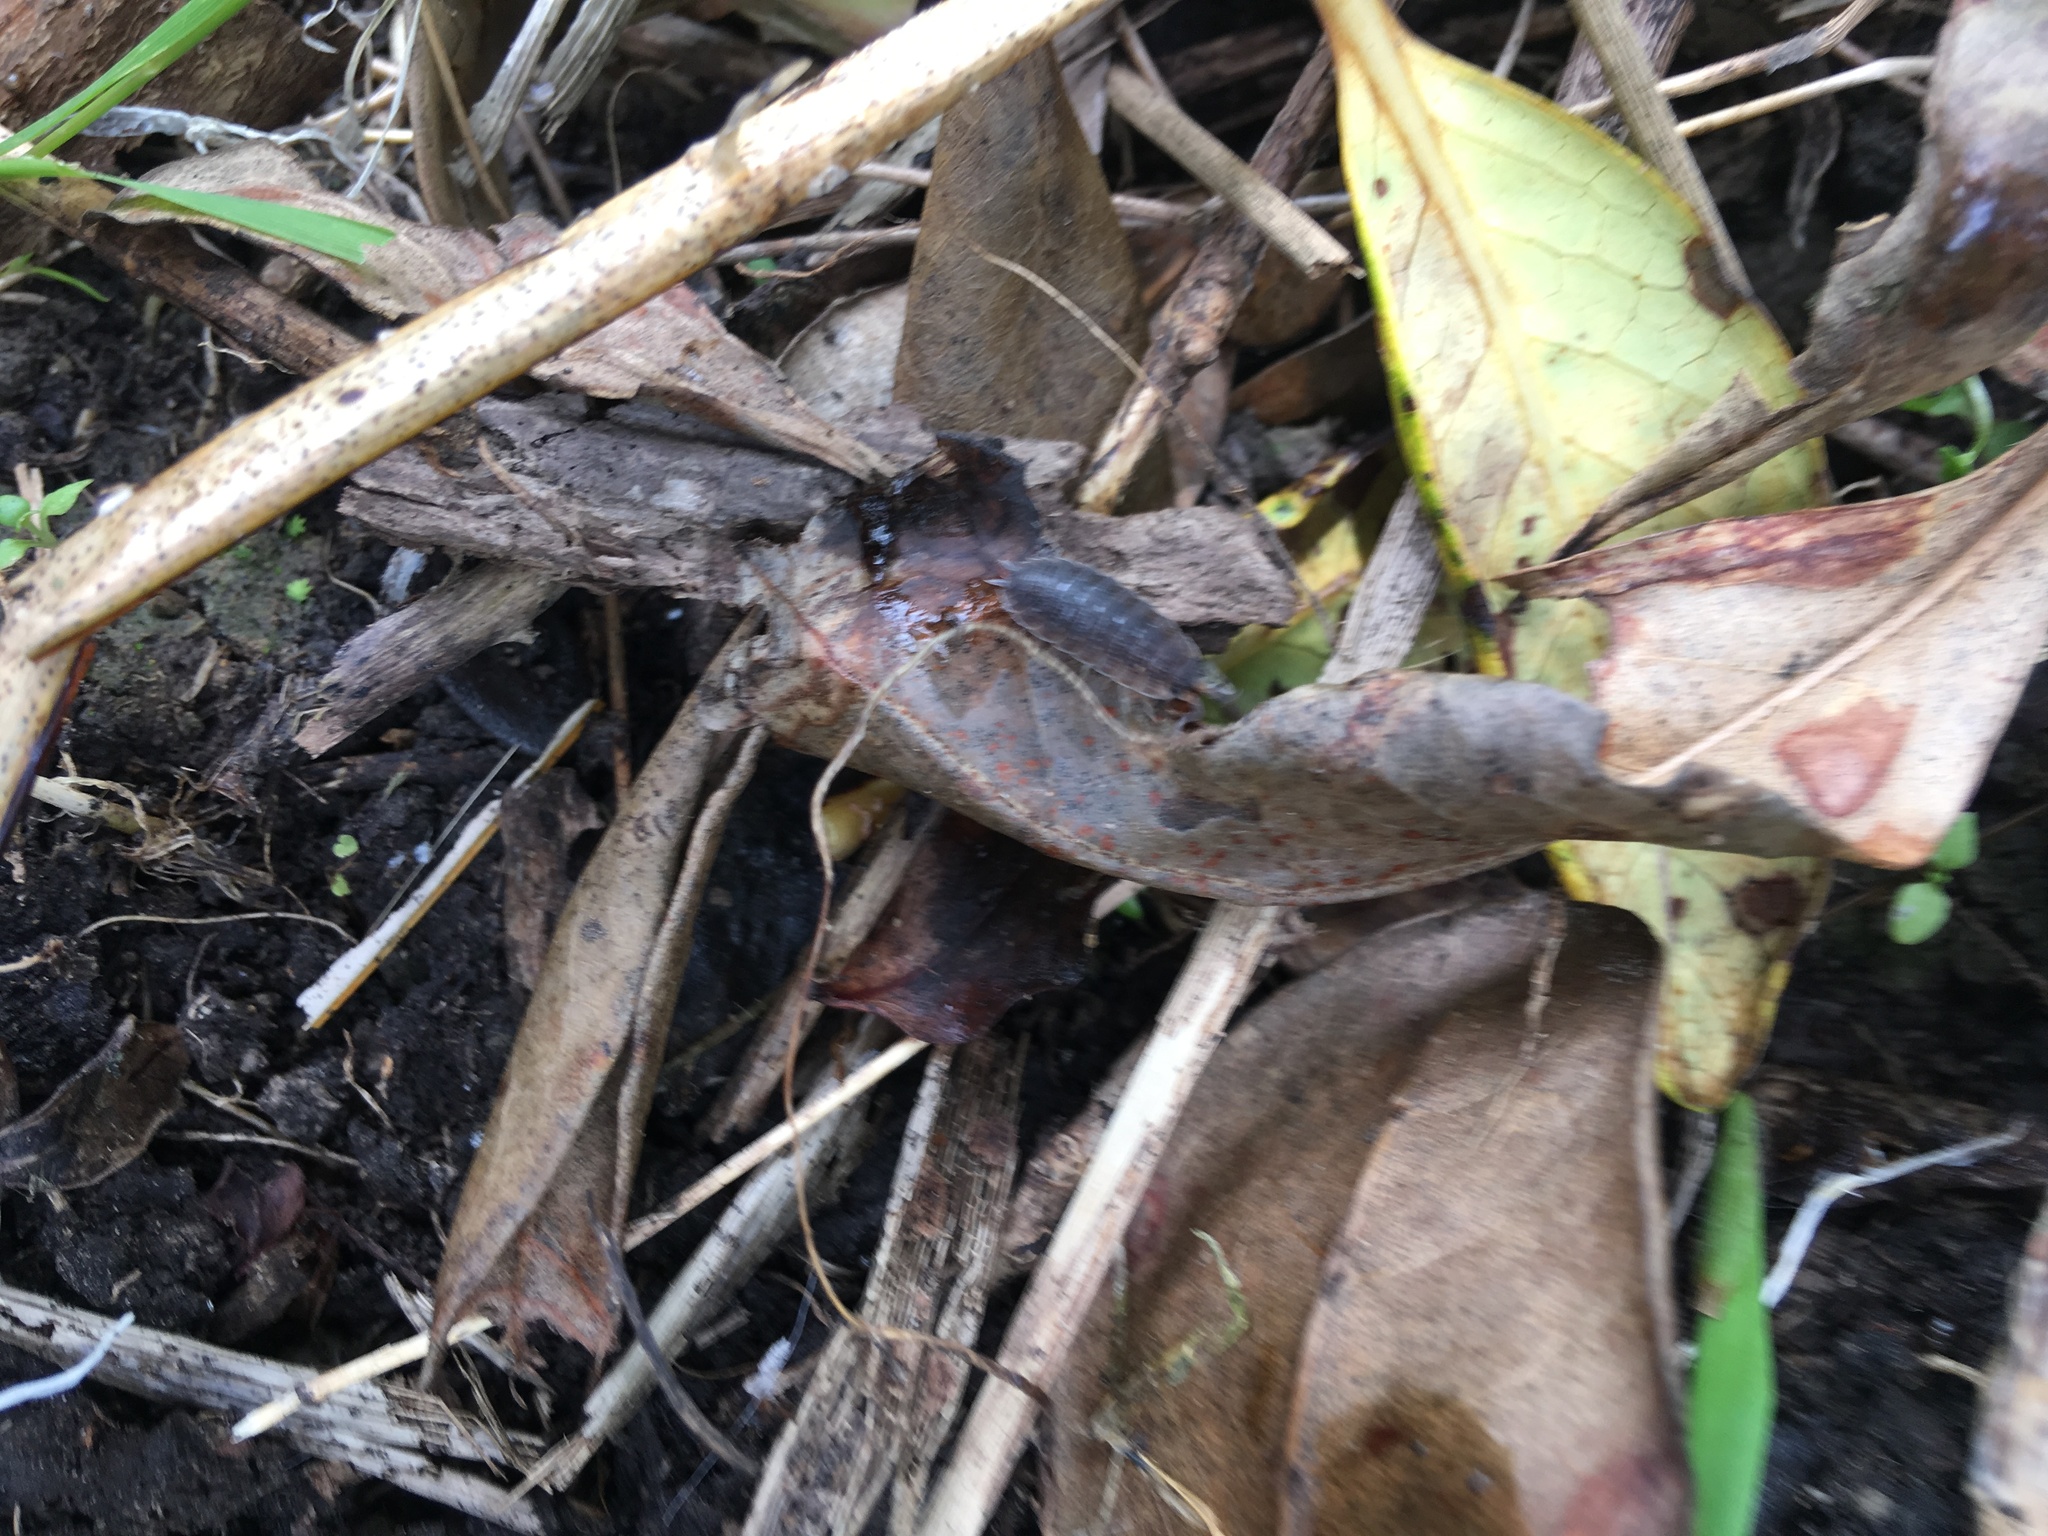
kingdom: Animalia
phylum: Arthropoda
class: Malacostraca
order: Isopoda
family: Porcellionidae
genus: Porcellio
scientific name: Porcellio scaber
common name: Common rough woodlouse
